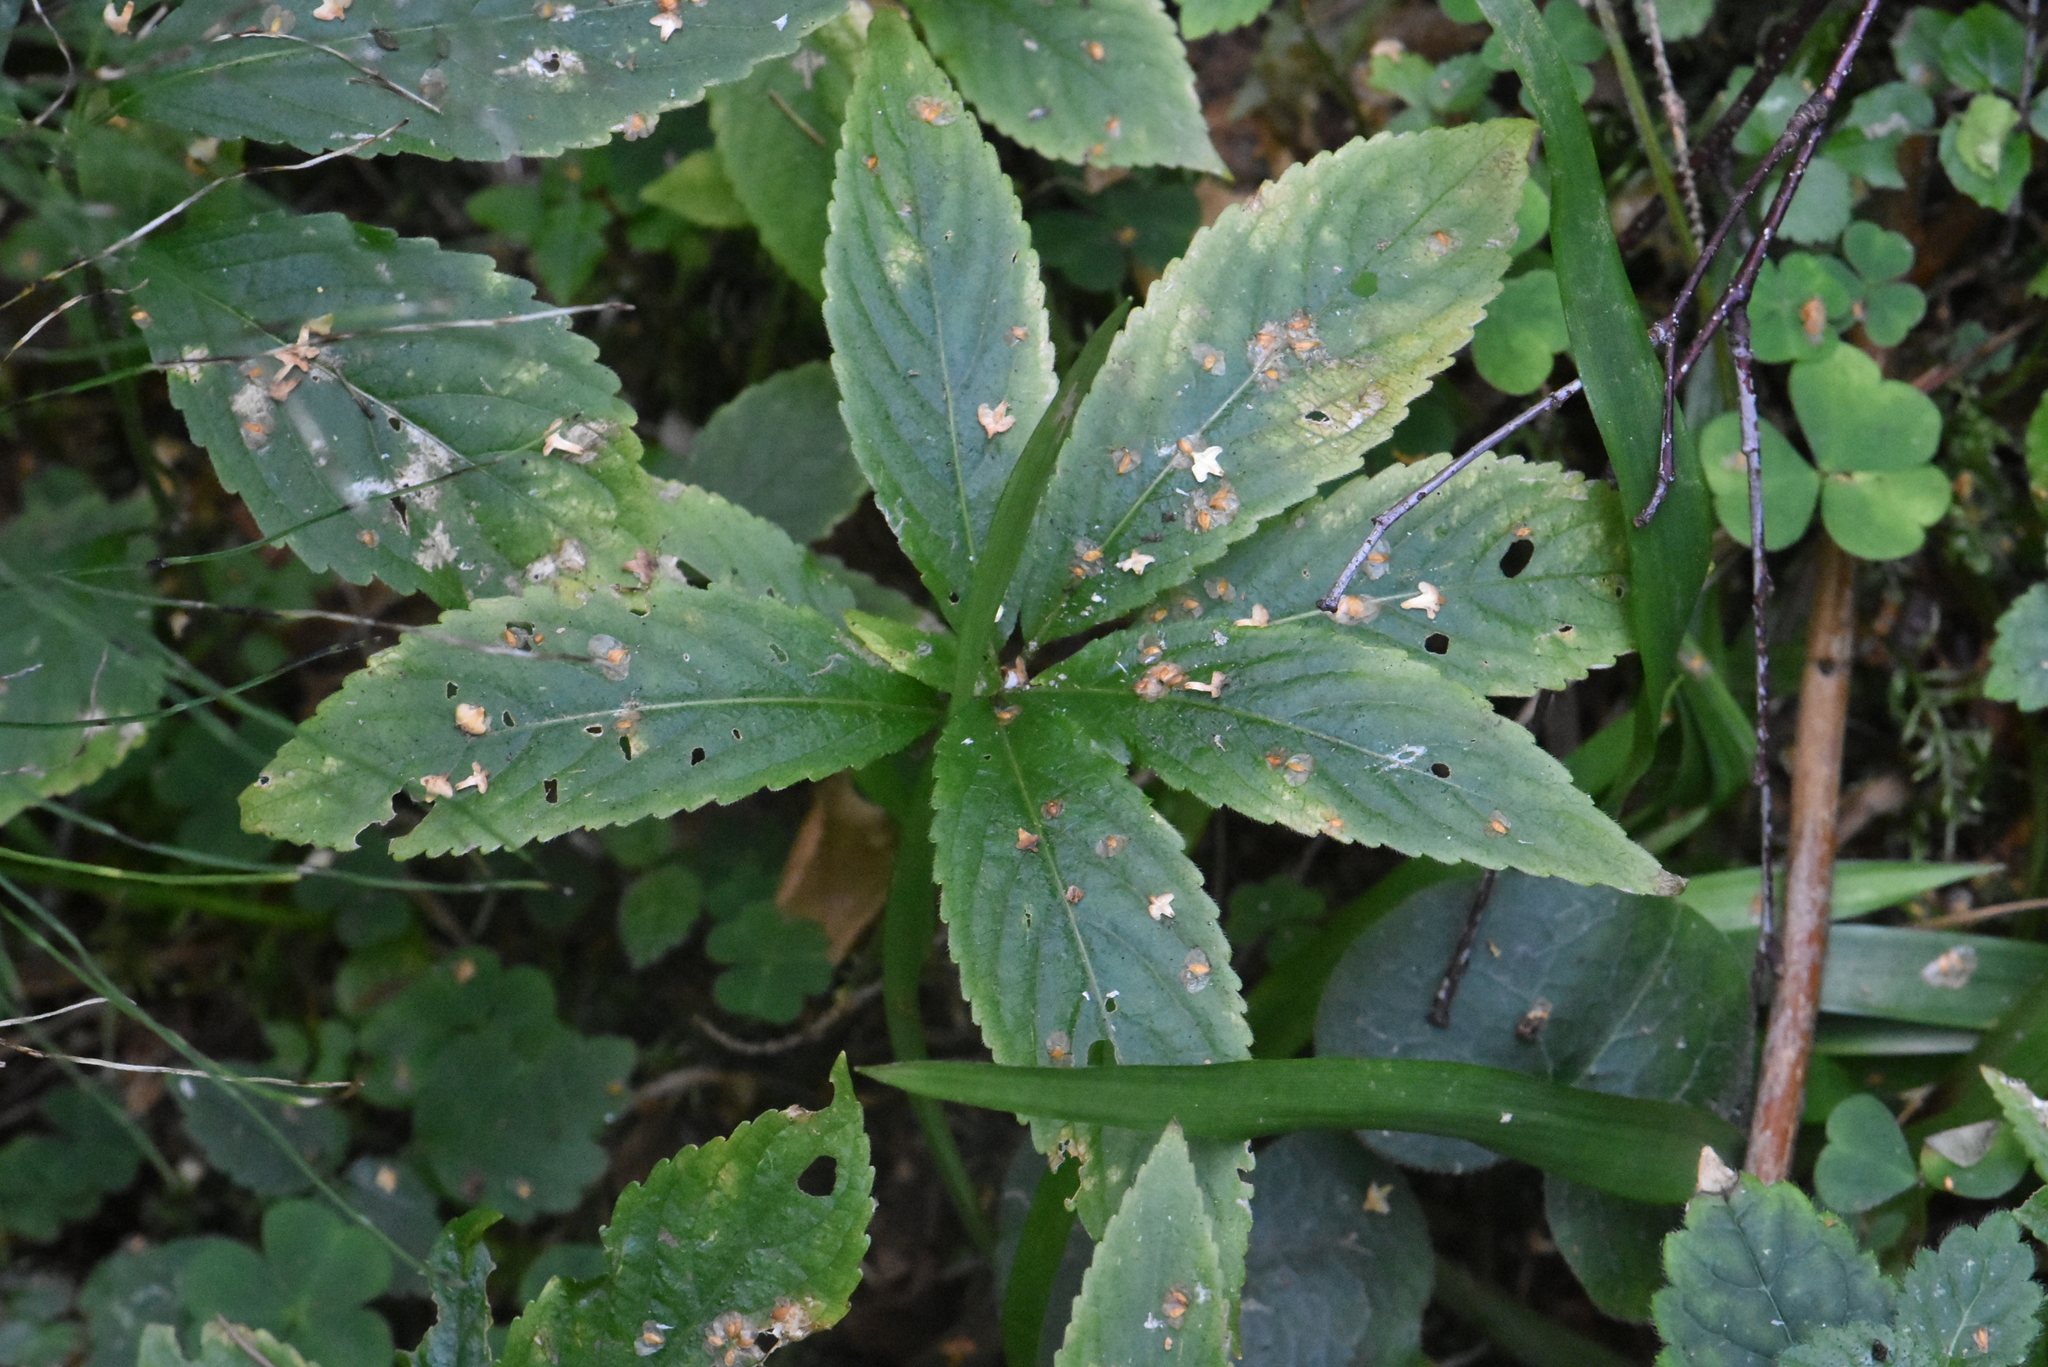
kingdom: Plantae
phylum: Tracheophyta
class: Magnoliopsida
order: Malpighiales
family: Euphorbiaceae
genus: Mercurialis
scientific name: Mercurialis perennis
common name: Dog mercury
